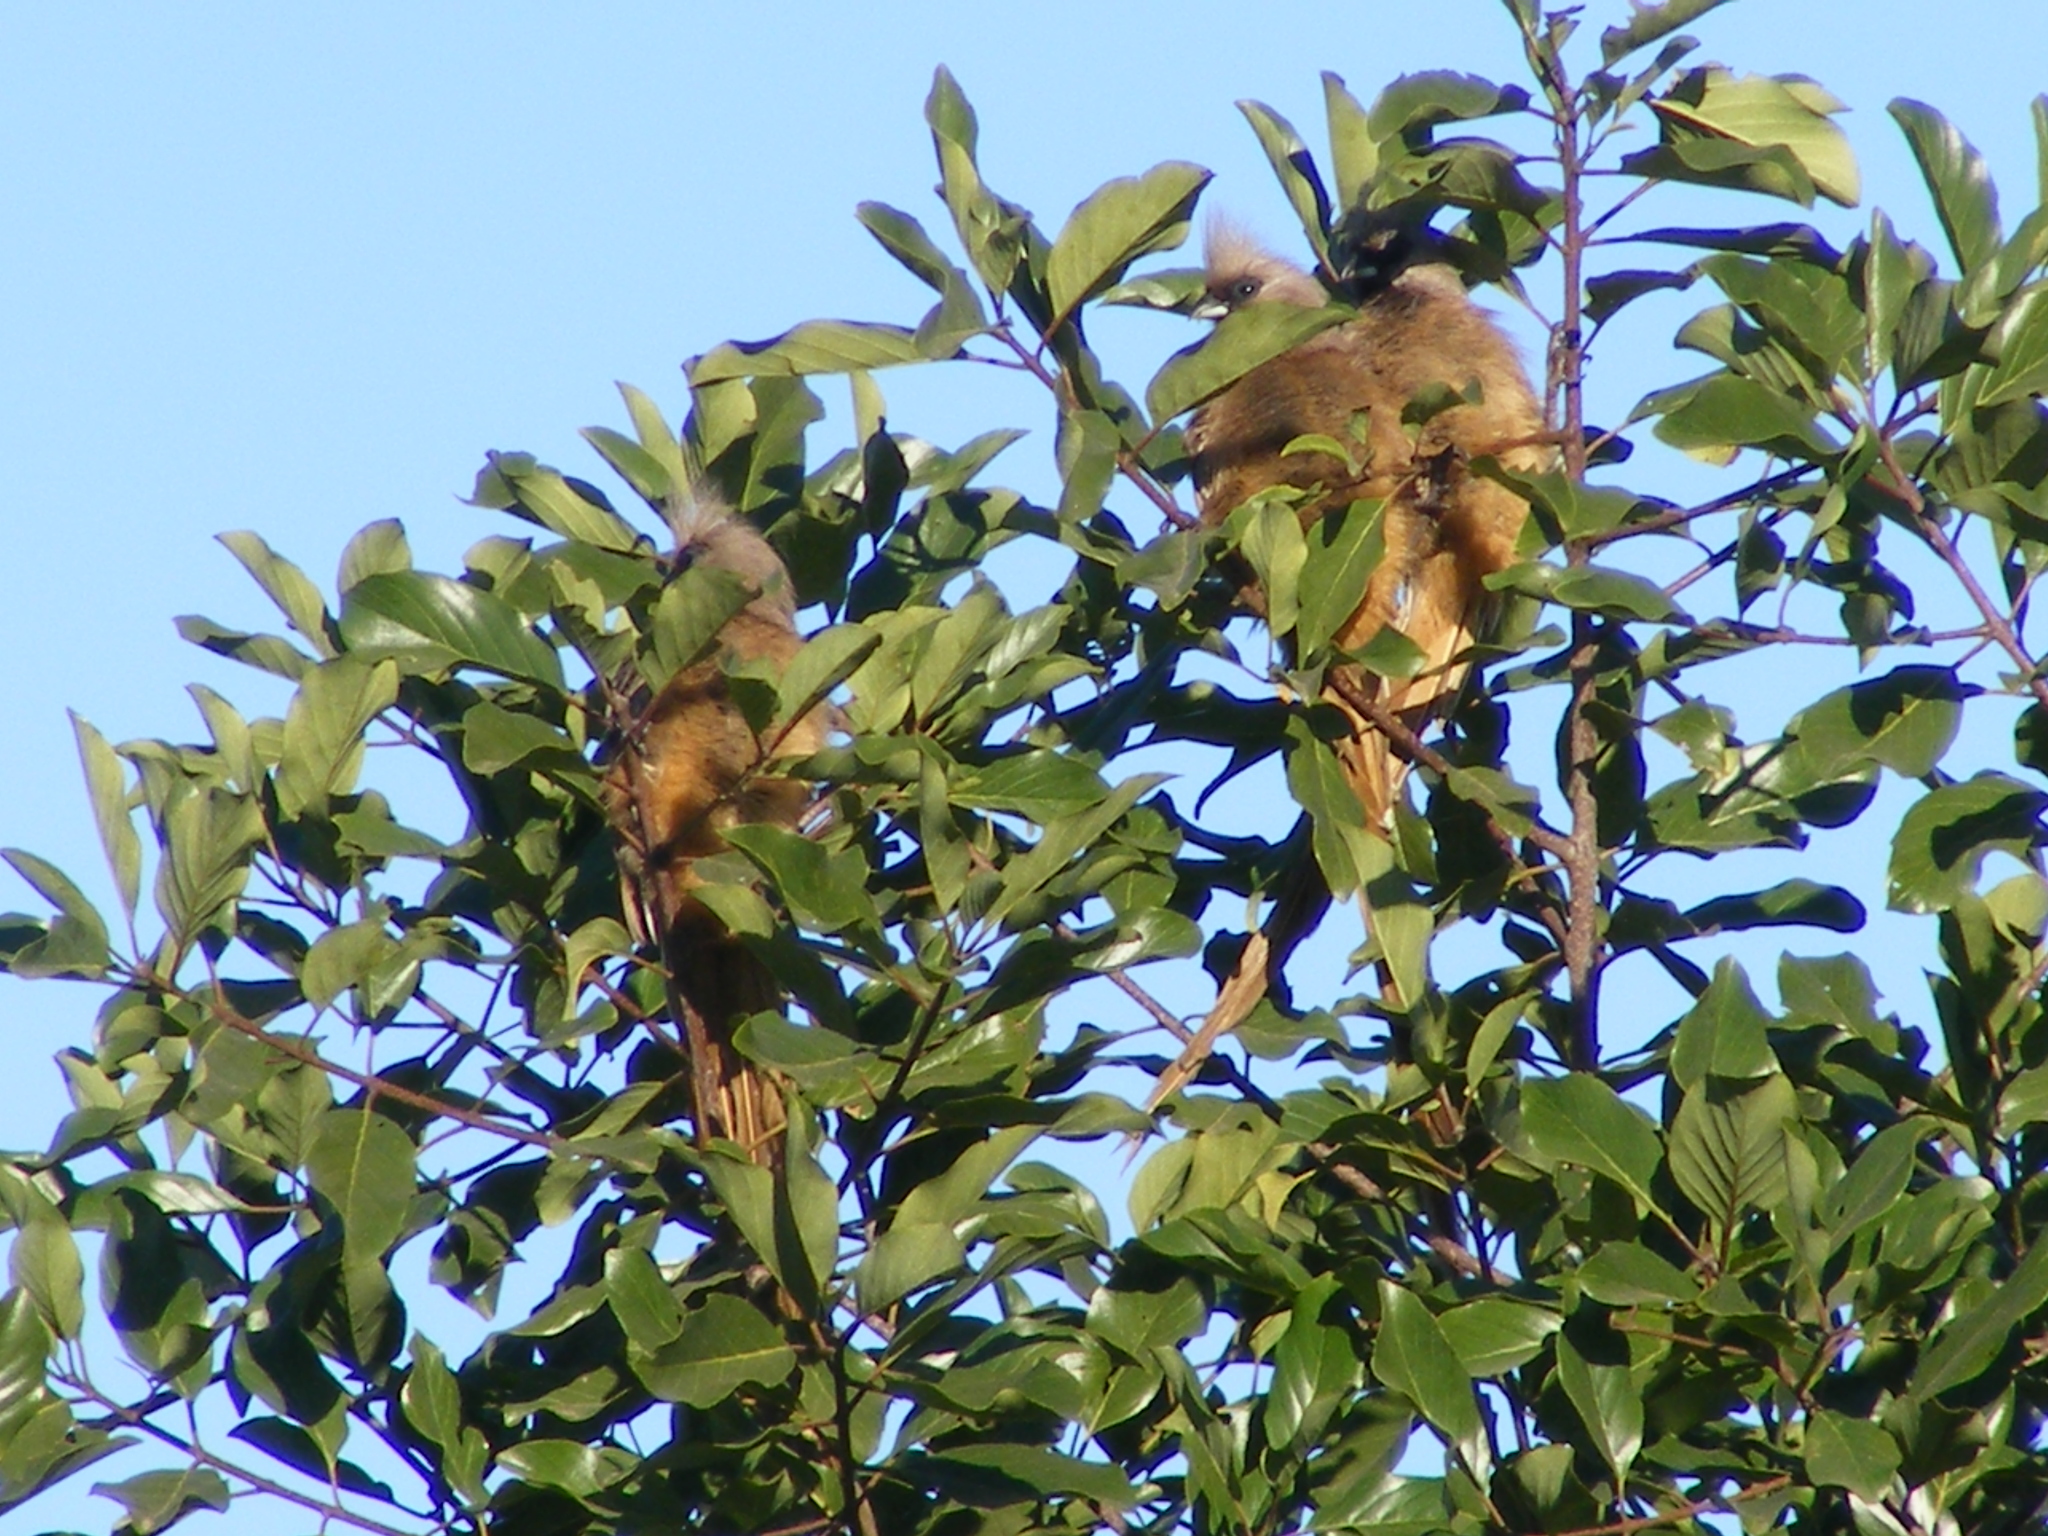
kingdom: Animalia
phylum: Chordata
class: Aves
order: Coliiformes
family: Coliidae
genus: Colius
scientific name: Colius striatus
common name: Speckled mousebird
